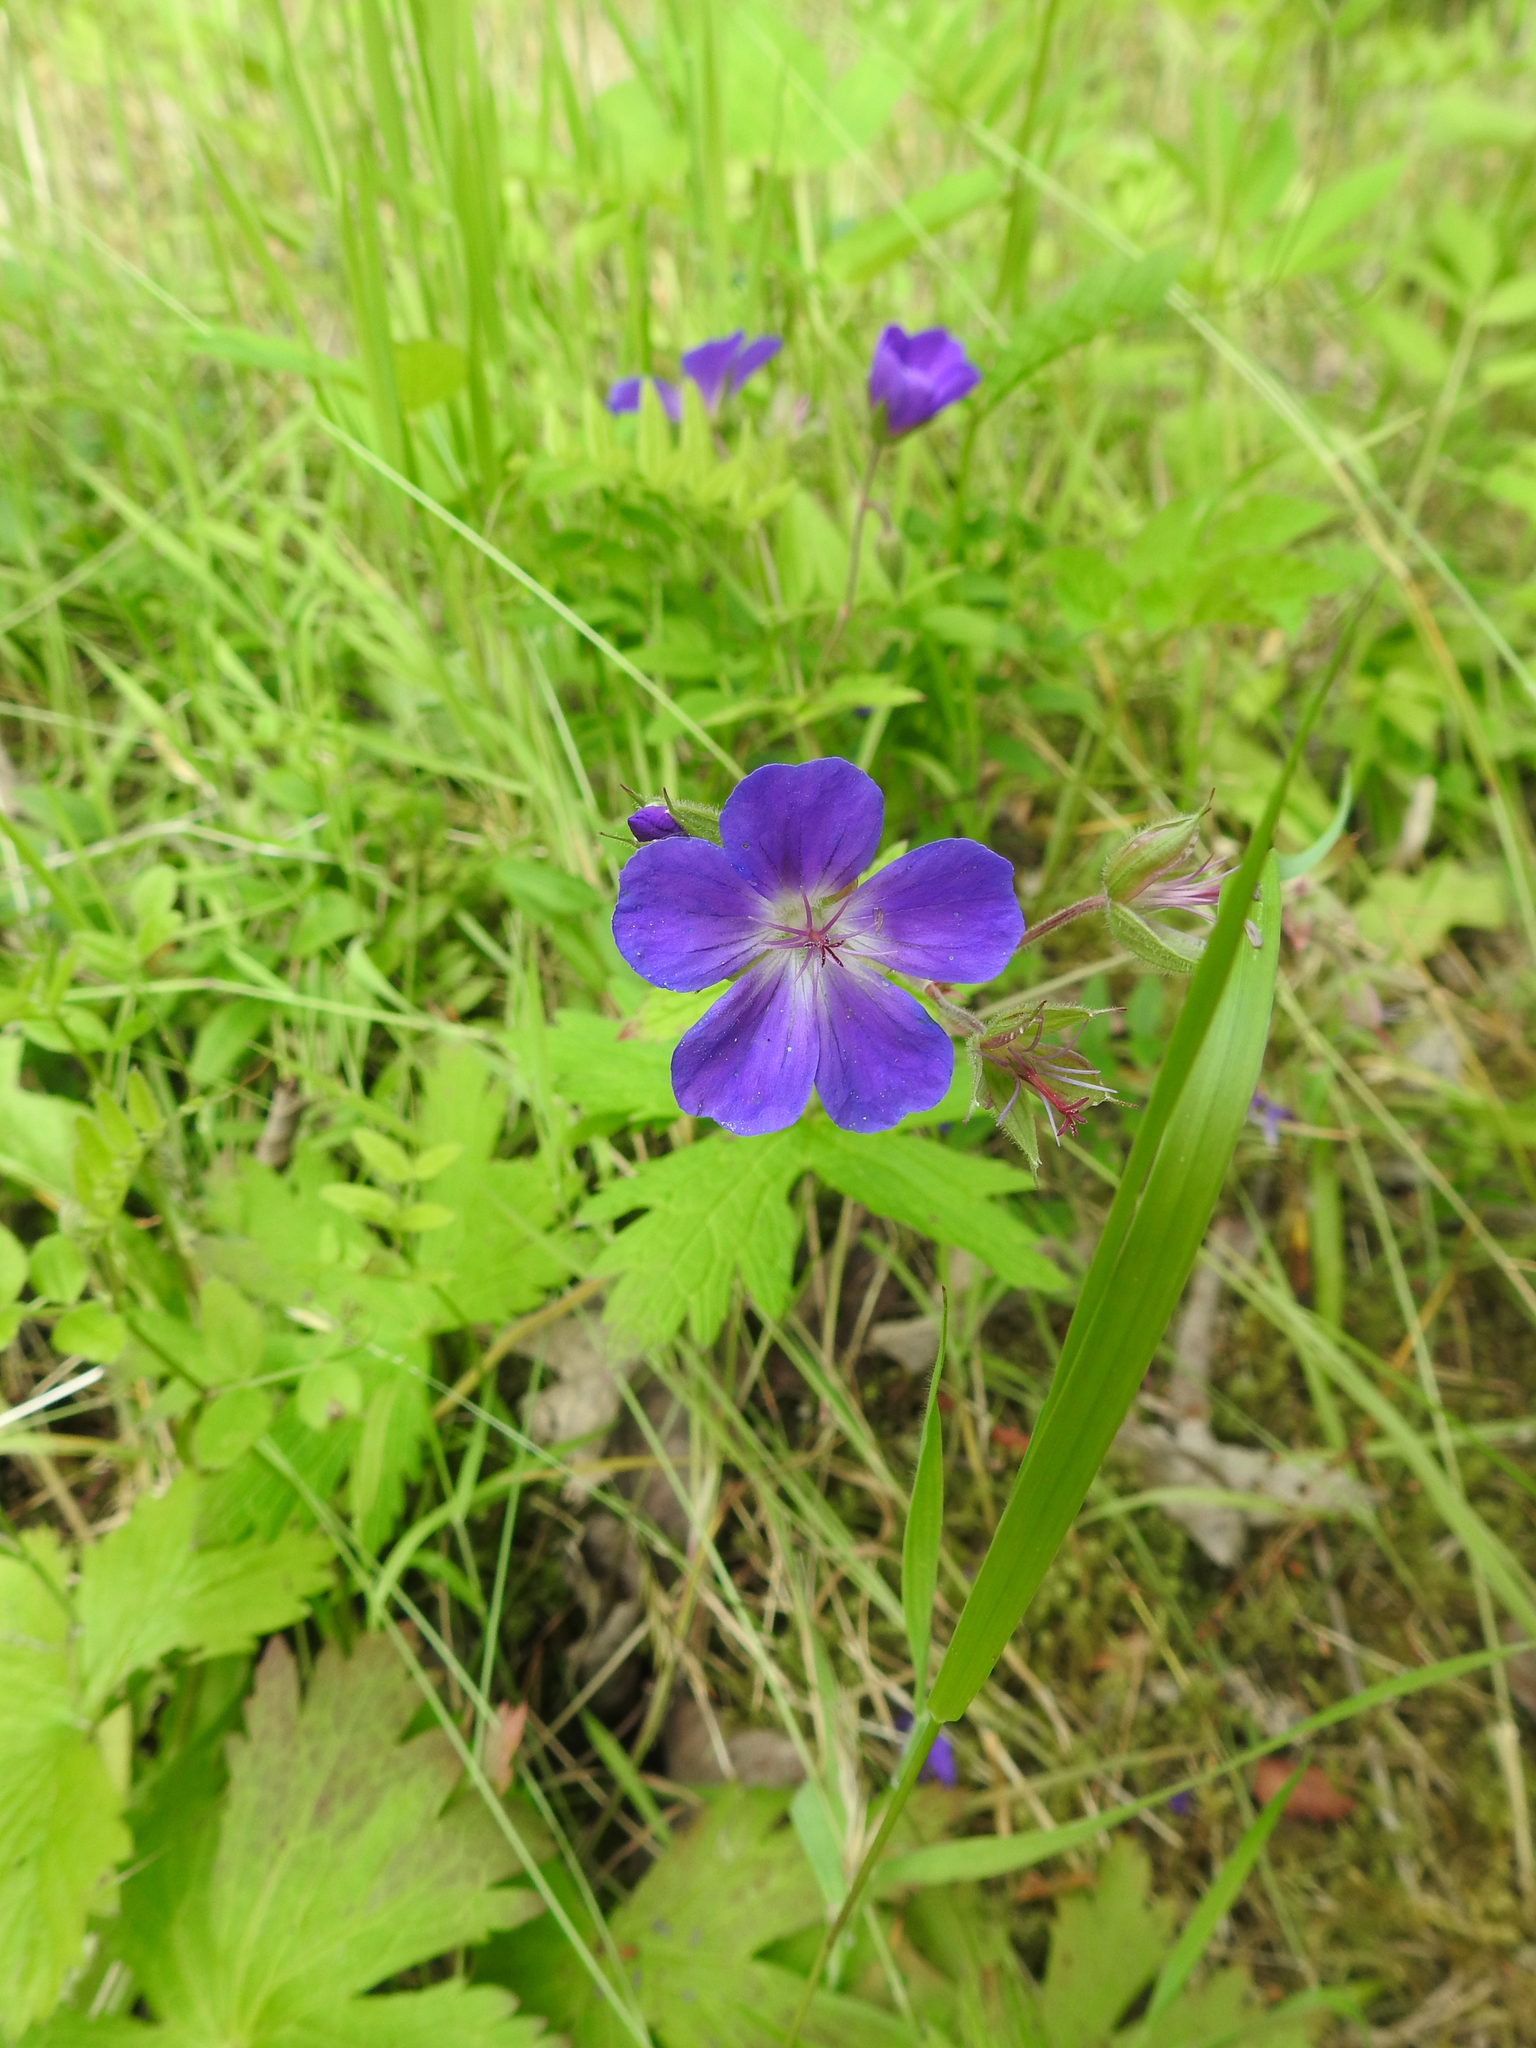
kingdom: Plantae
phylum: Tracheophyta
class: Magnoliopsida
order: Geraniales
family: Geraniaceae
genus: Geranium
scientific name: Geranium sylvaticum
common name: Wood crane's-bill
